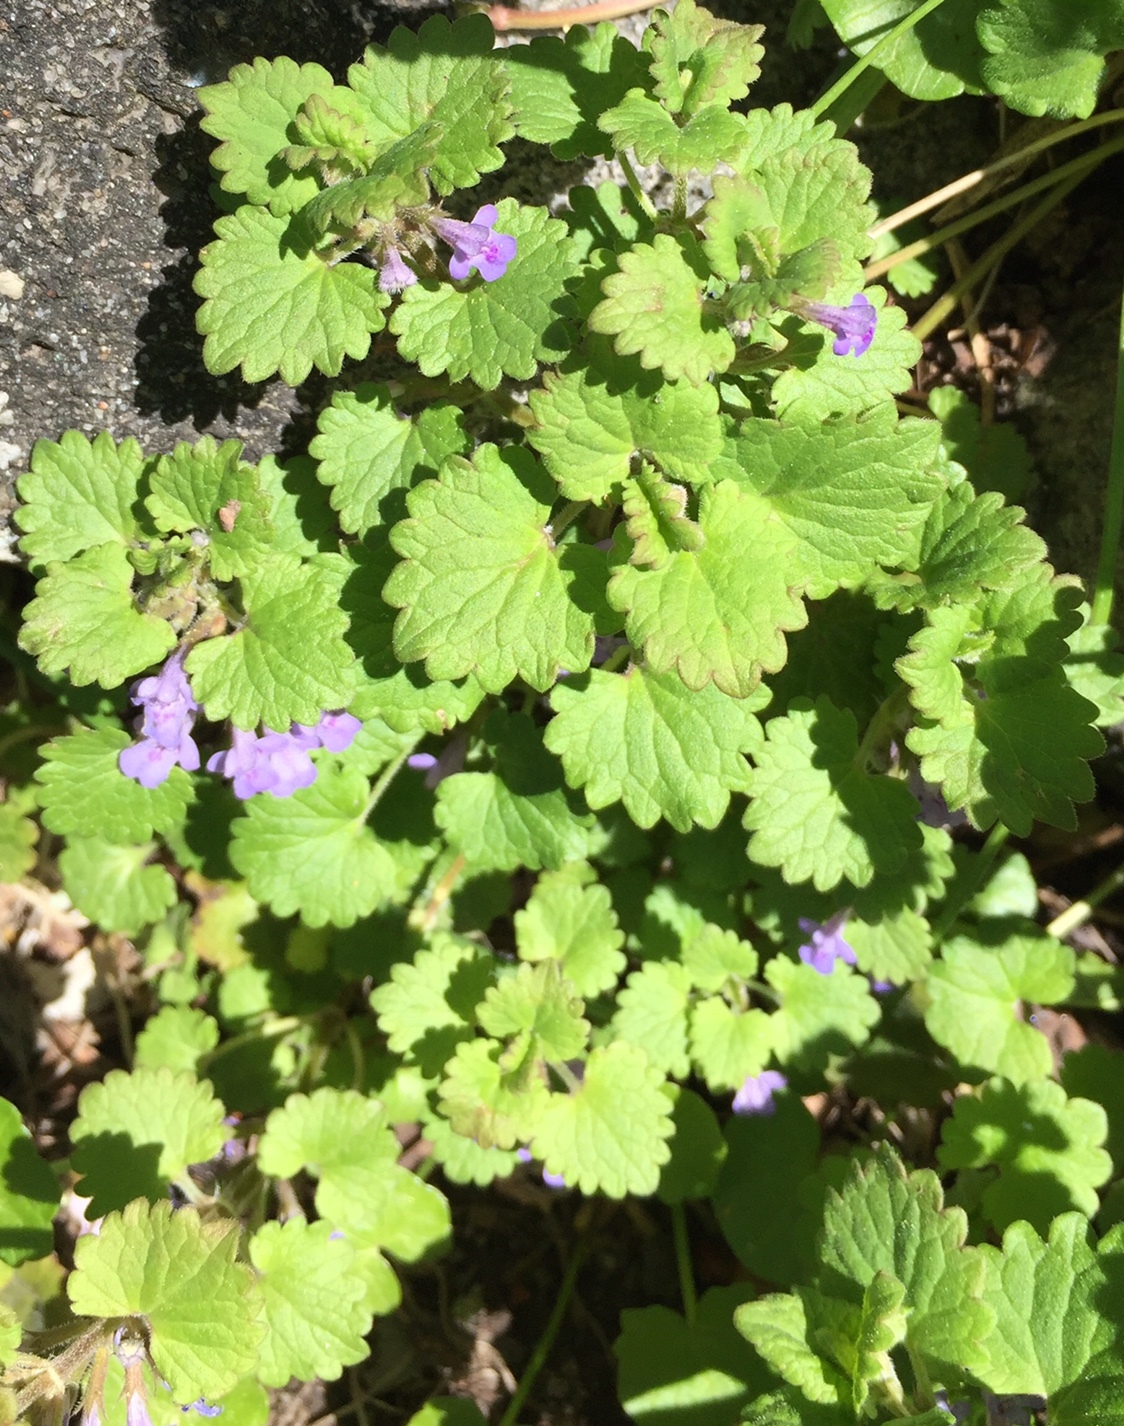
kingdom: Plantae
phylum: Tracheophyta
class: Magnoliopsida
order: Lamiales
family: Lamiaceae
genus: Glechoma
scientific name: Glechoma hederacea
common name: Ground ivy
